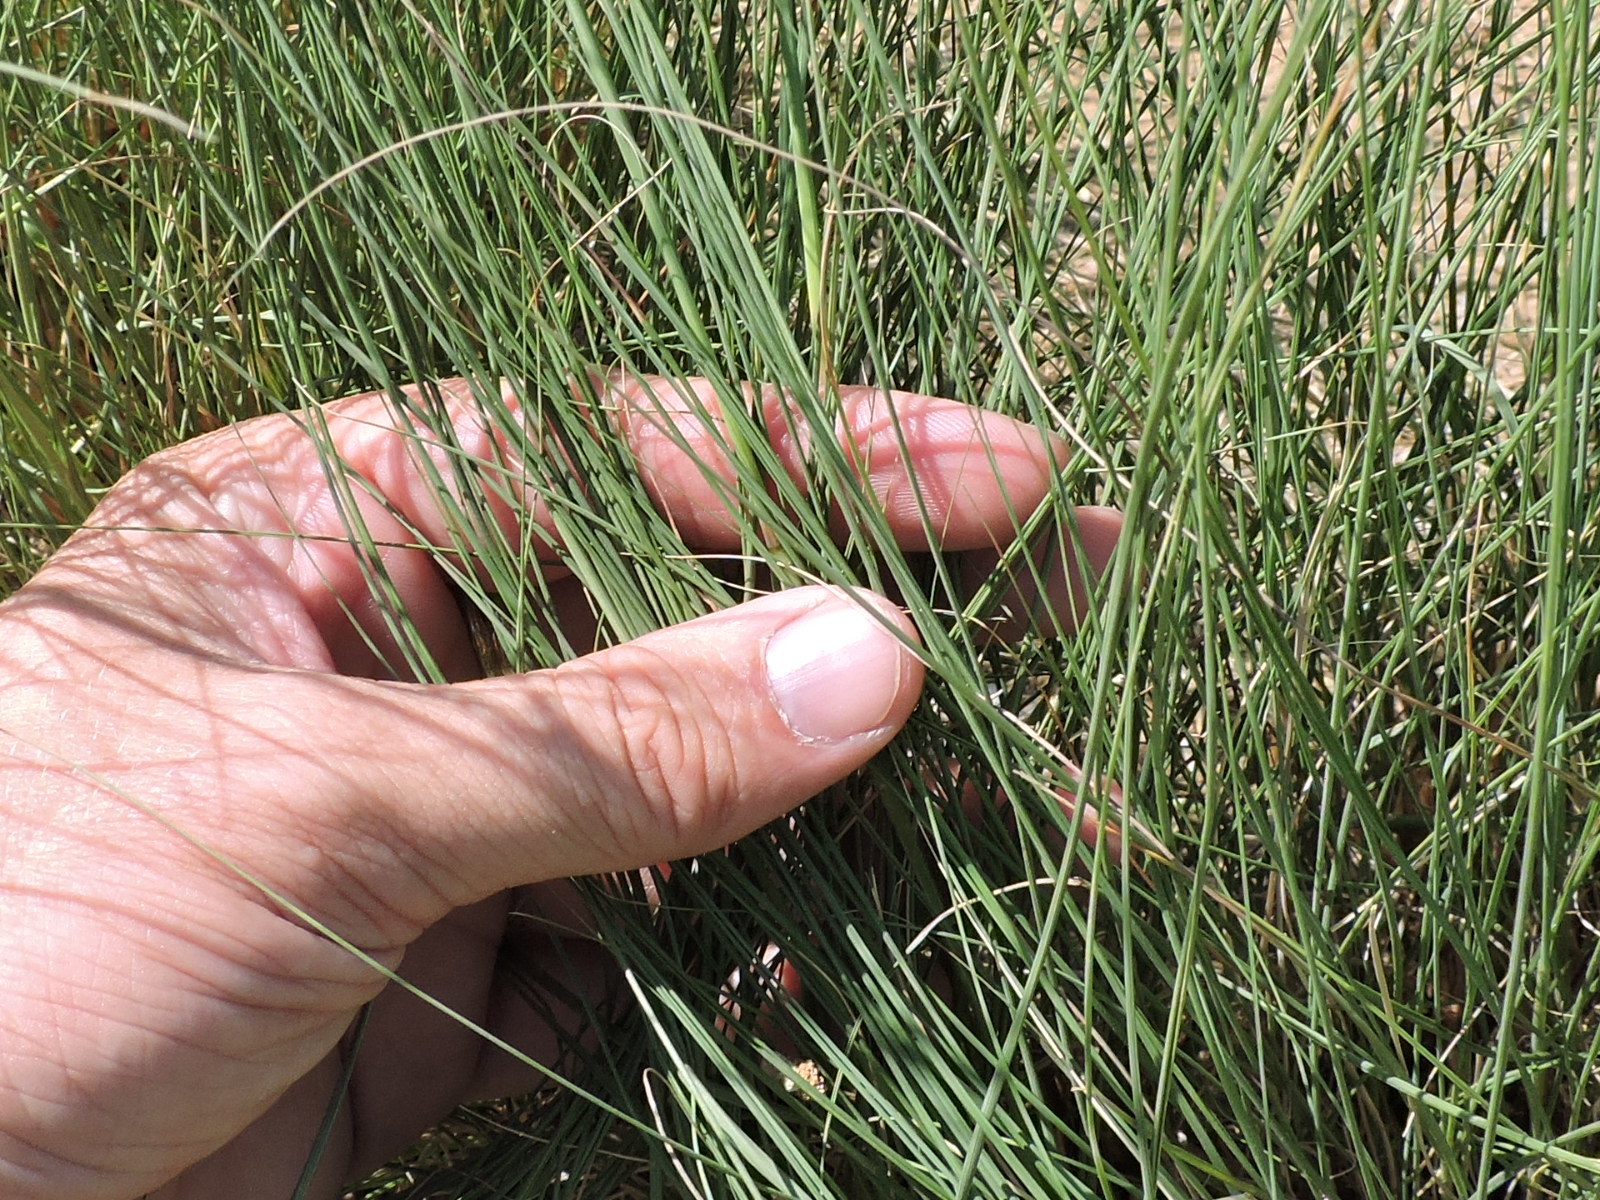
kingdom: Plantae
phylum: Tracheophyta
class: Liliopsida
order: Poales
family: Poaceae
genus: Eragrostis
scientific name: Eragrostis curvula
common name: African love-grass
